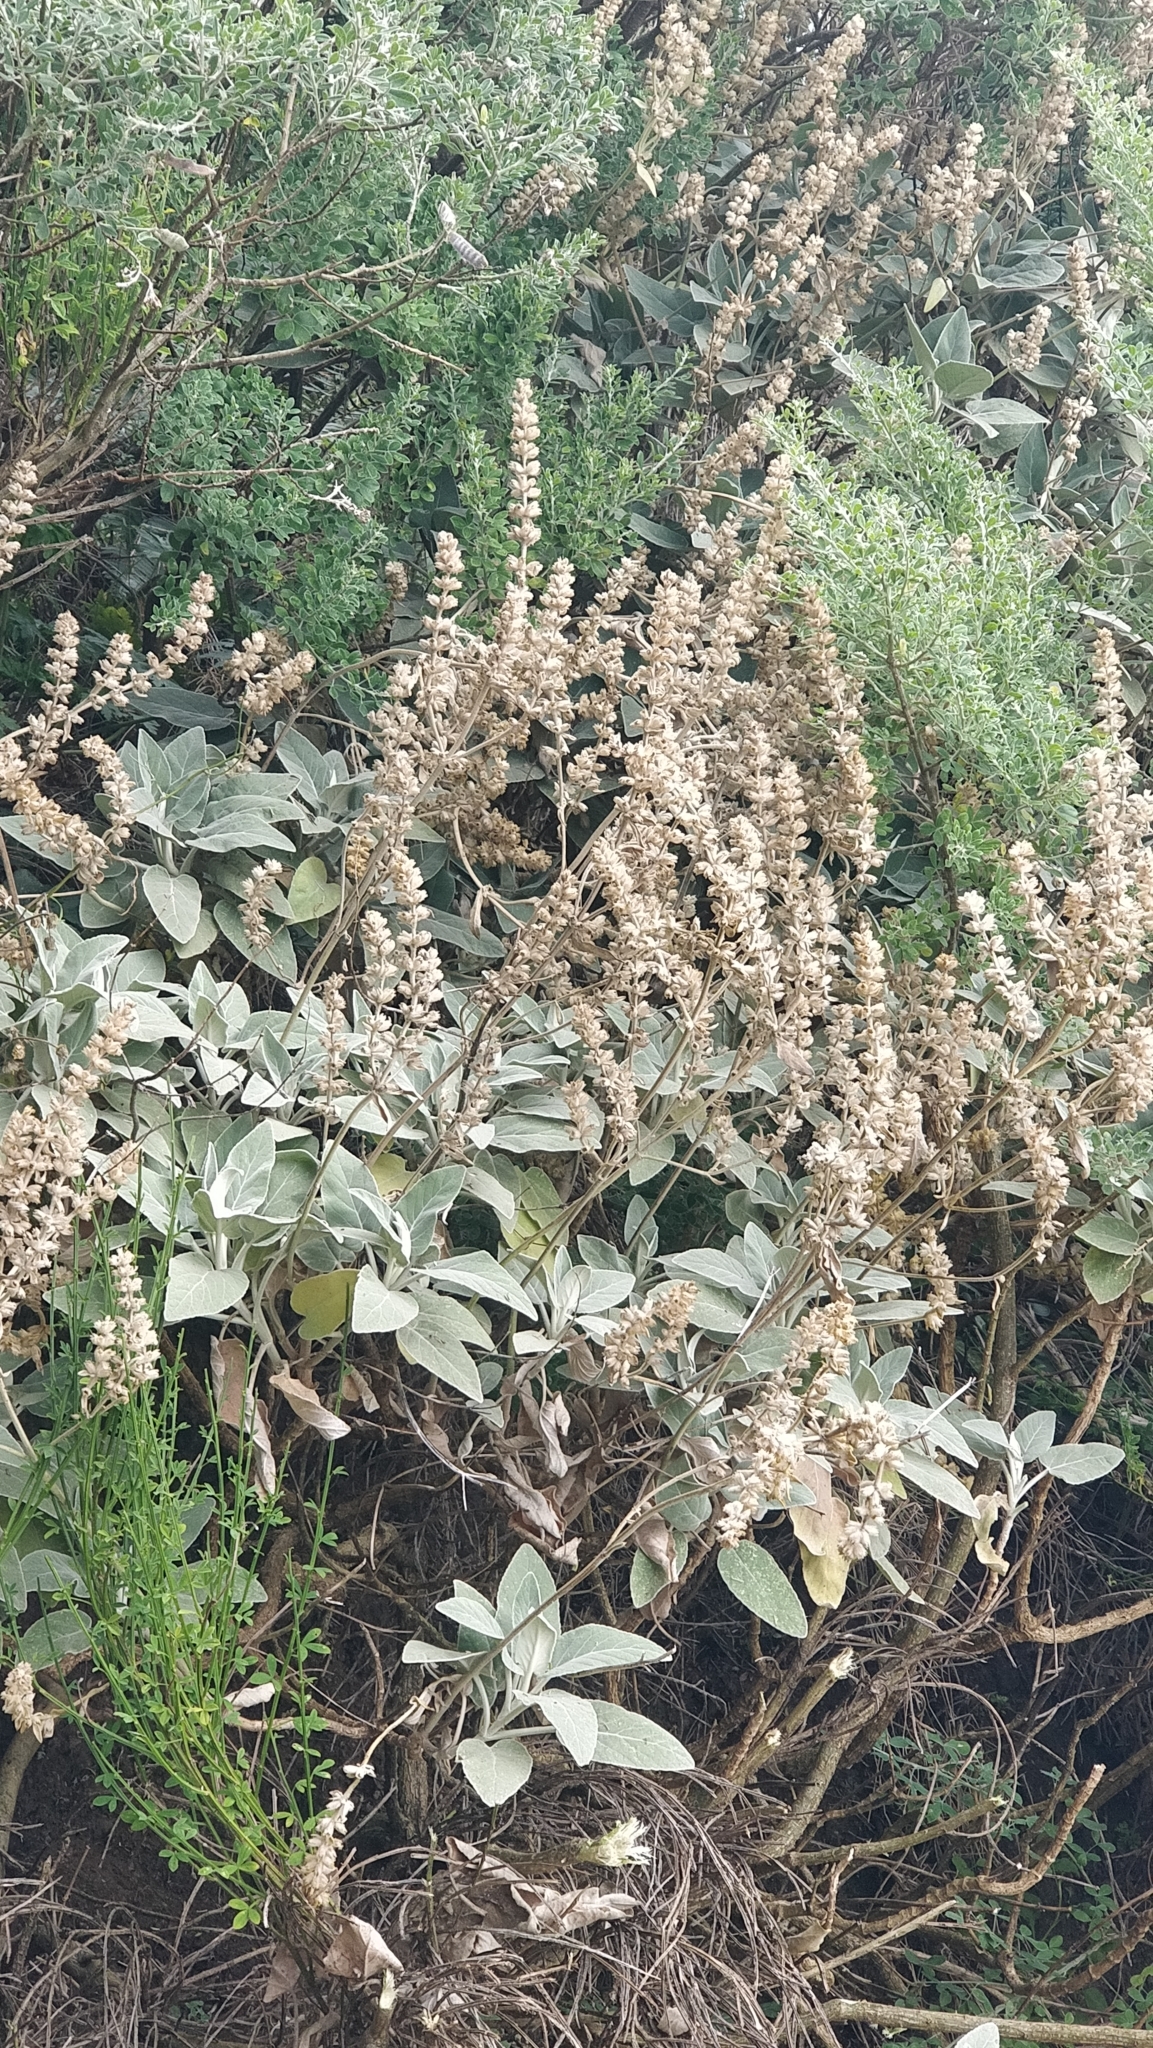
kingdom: Plantae
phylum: Tracheophyta
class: Magnoliopsida
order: Lamiales
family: Lamiaceae
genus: Sideritis
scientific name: Sideritis candicans
